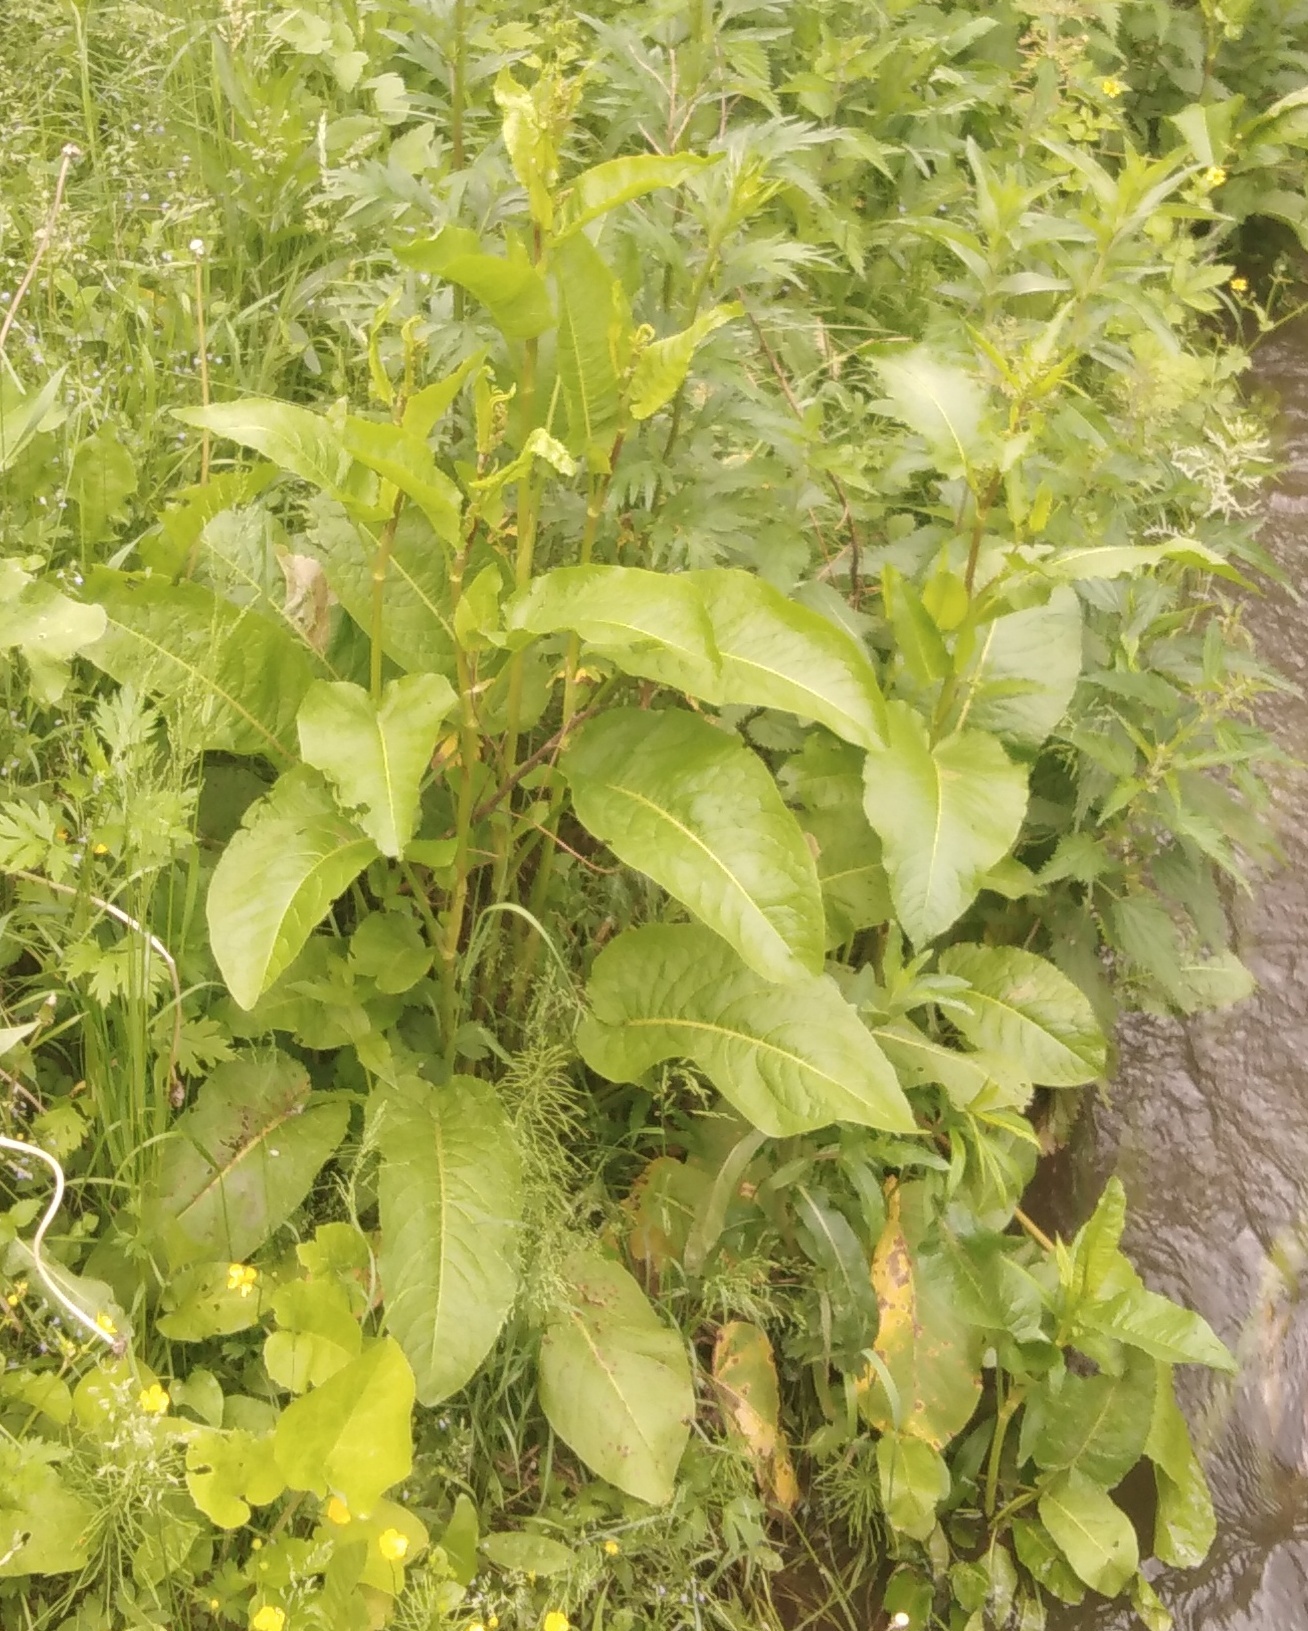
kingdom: Plantae
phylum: Tracheophyta
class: Magnoliopsida
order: Caryophyllales
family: Polygonaceae
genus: Rumex
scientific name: Rumex obtusifolius
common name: Bitter dock
